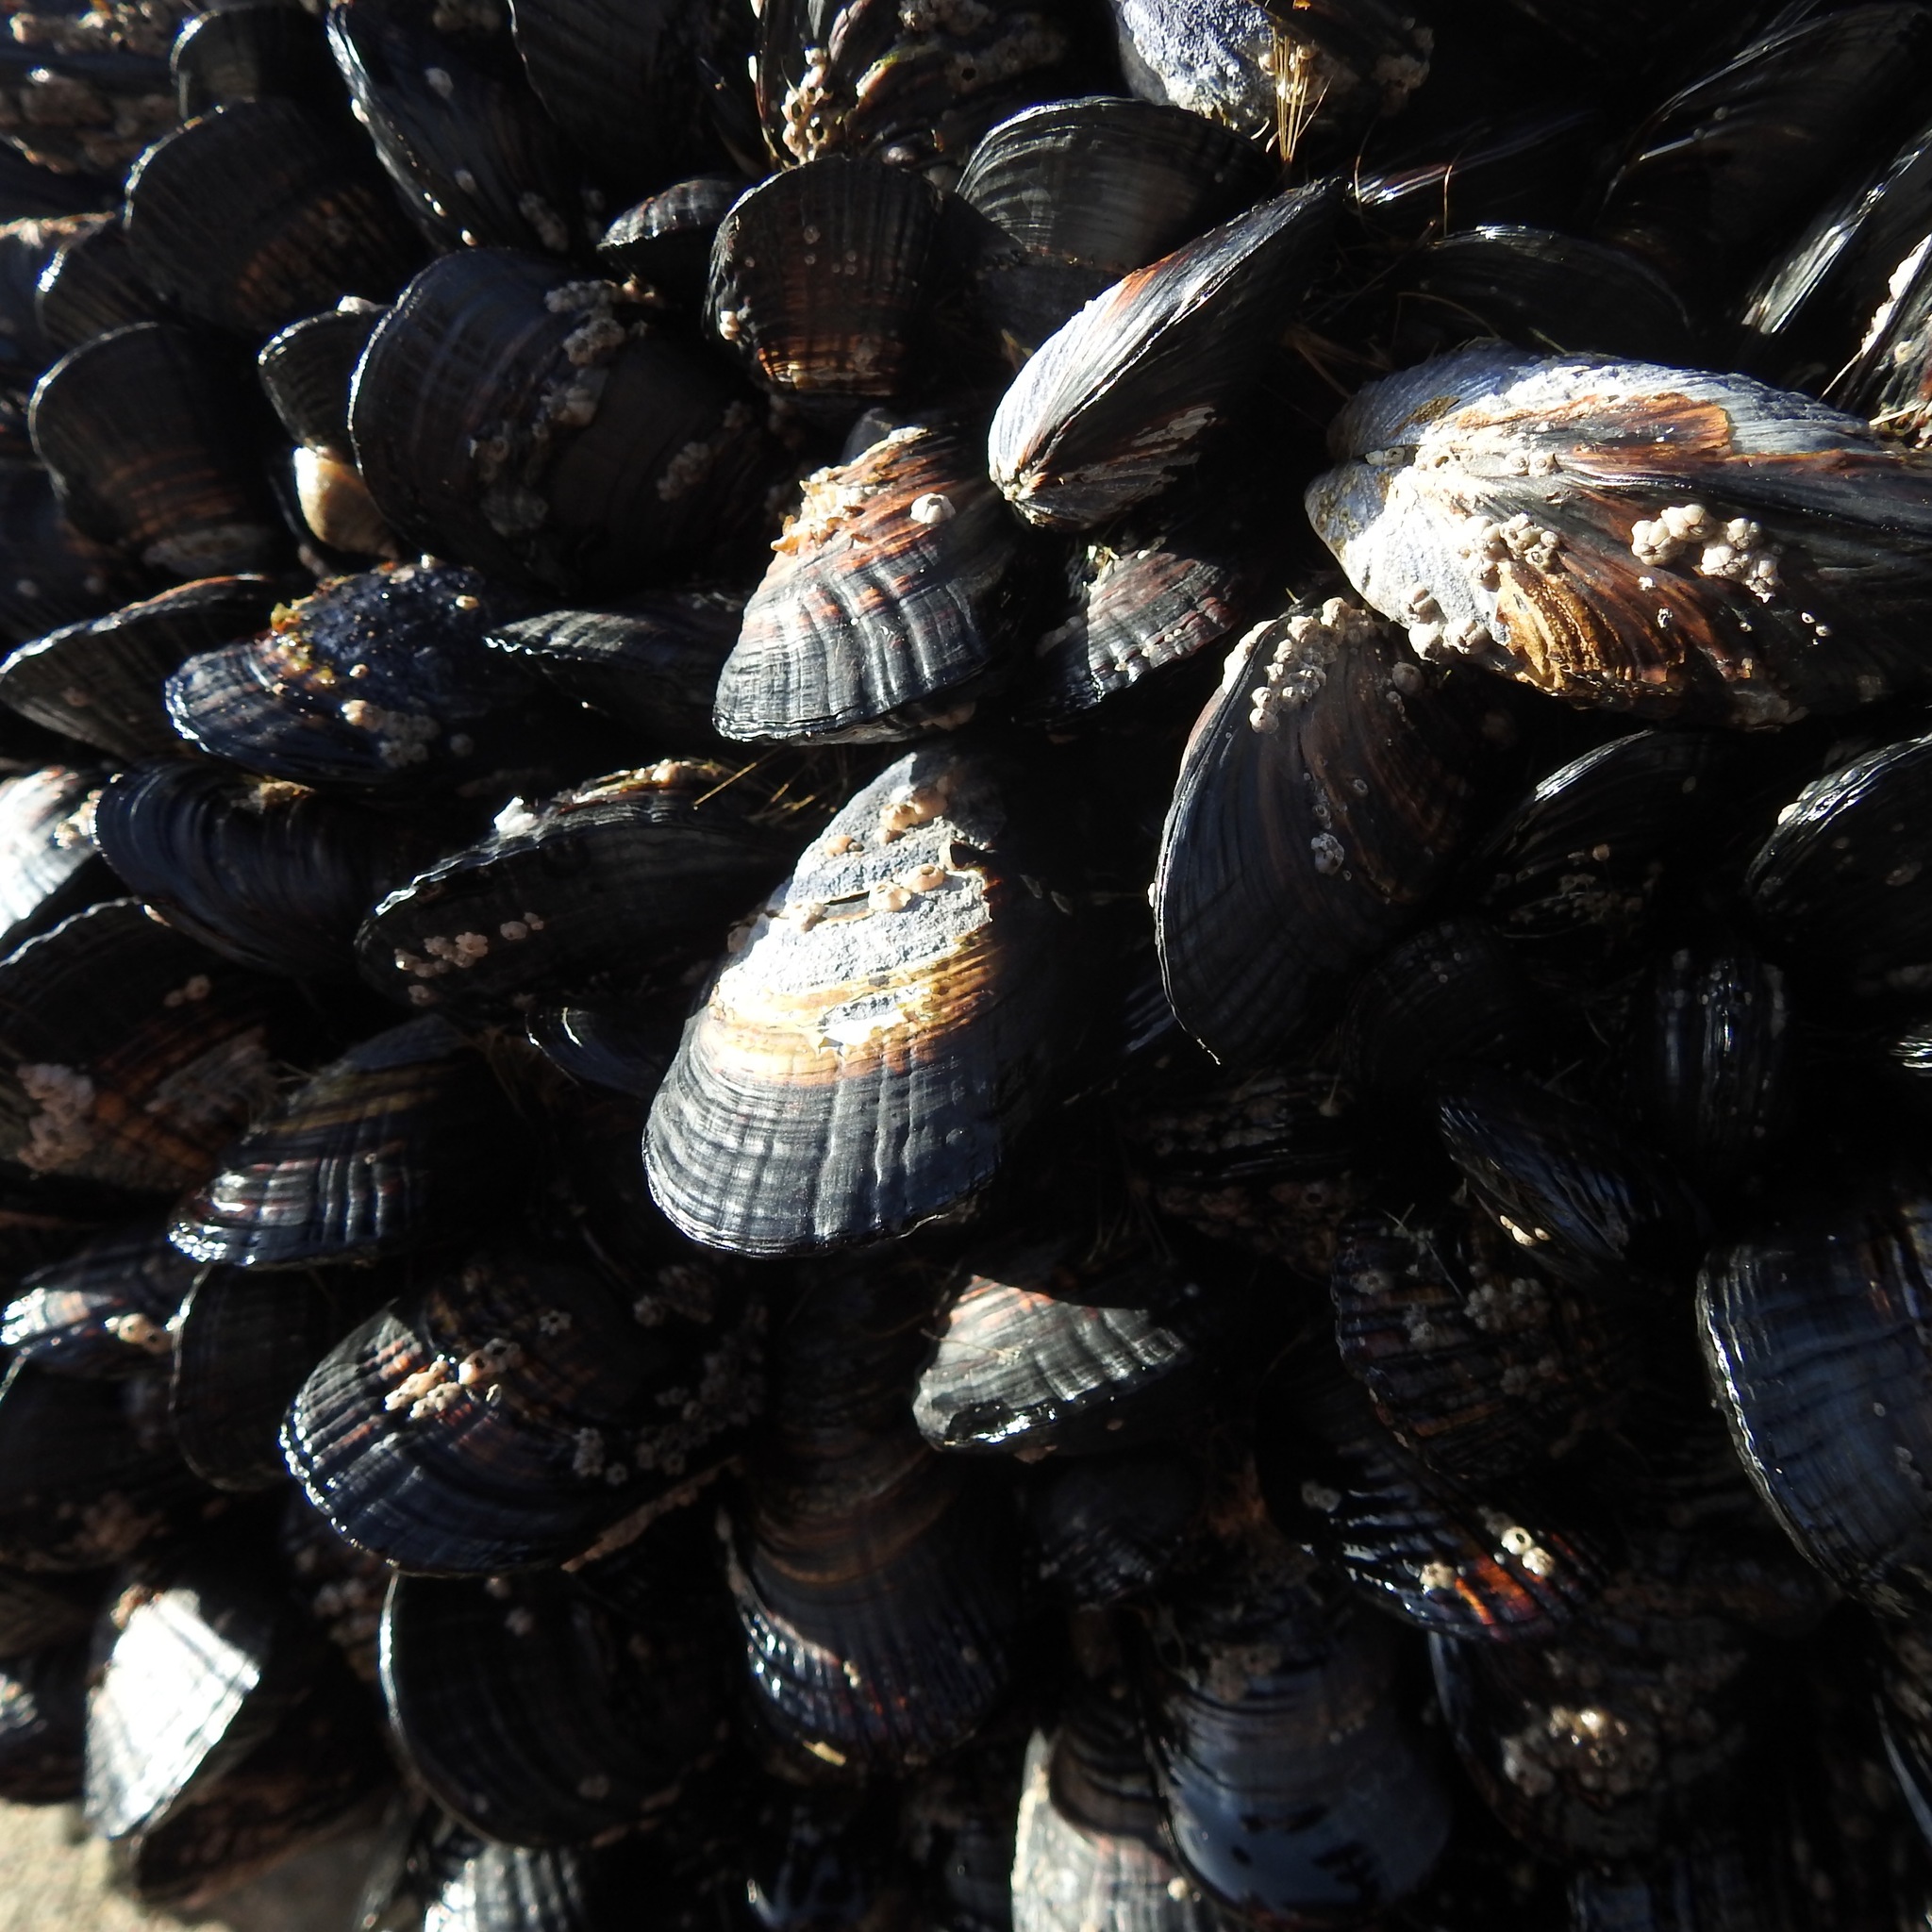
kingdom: Animalia
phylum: Mollusca
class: Bivalvia
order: Mytilida
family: Mytilidae
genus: Mytilus
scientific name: Mytilus californianus
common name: California mussel
